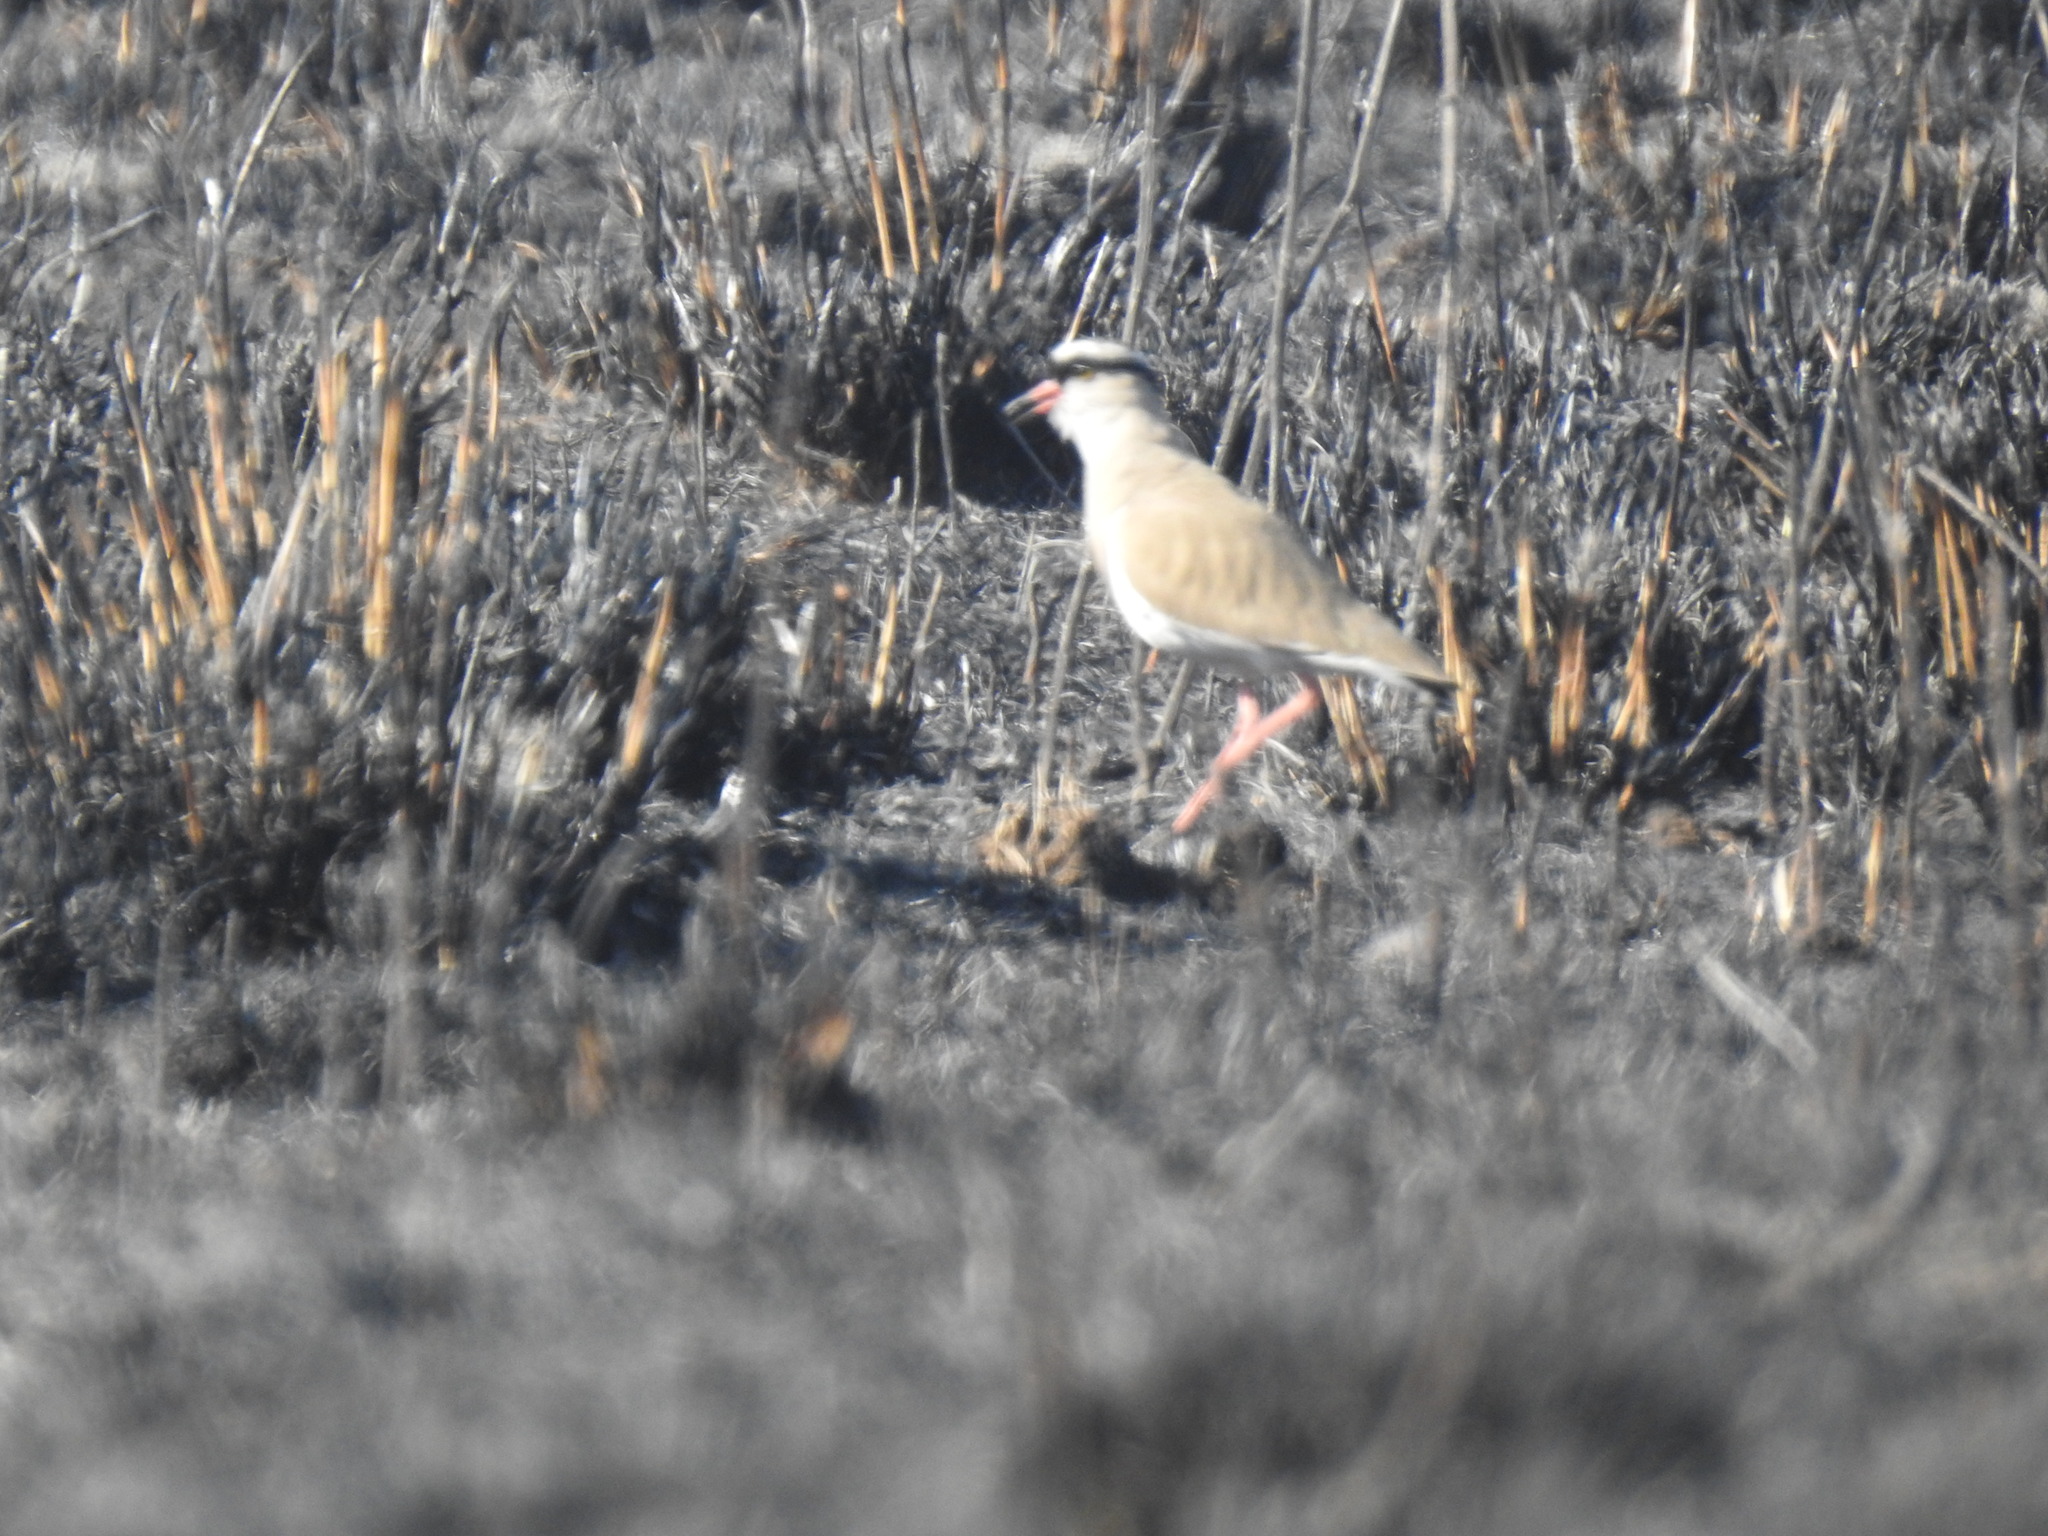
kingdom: Animalia
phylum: Chordata
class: Aves
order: Charadriiformes
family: Charadriidae
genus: Vanellus
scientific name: Vanellus coronatus
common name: Crowned lapwing
